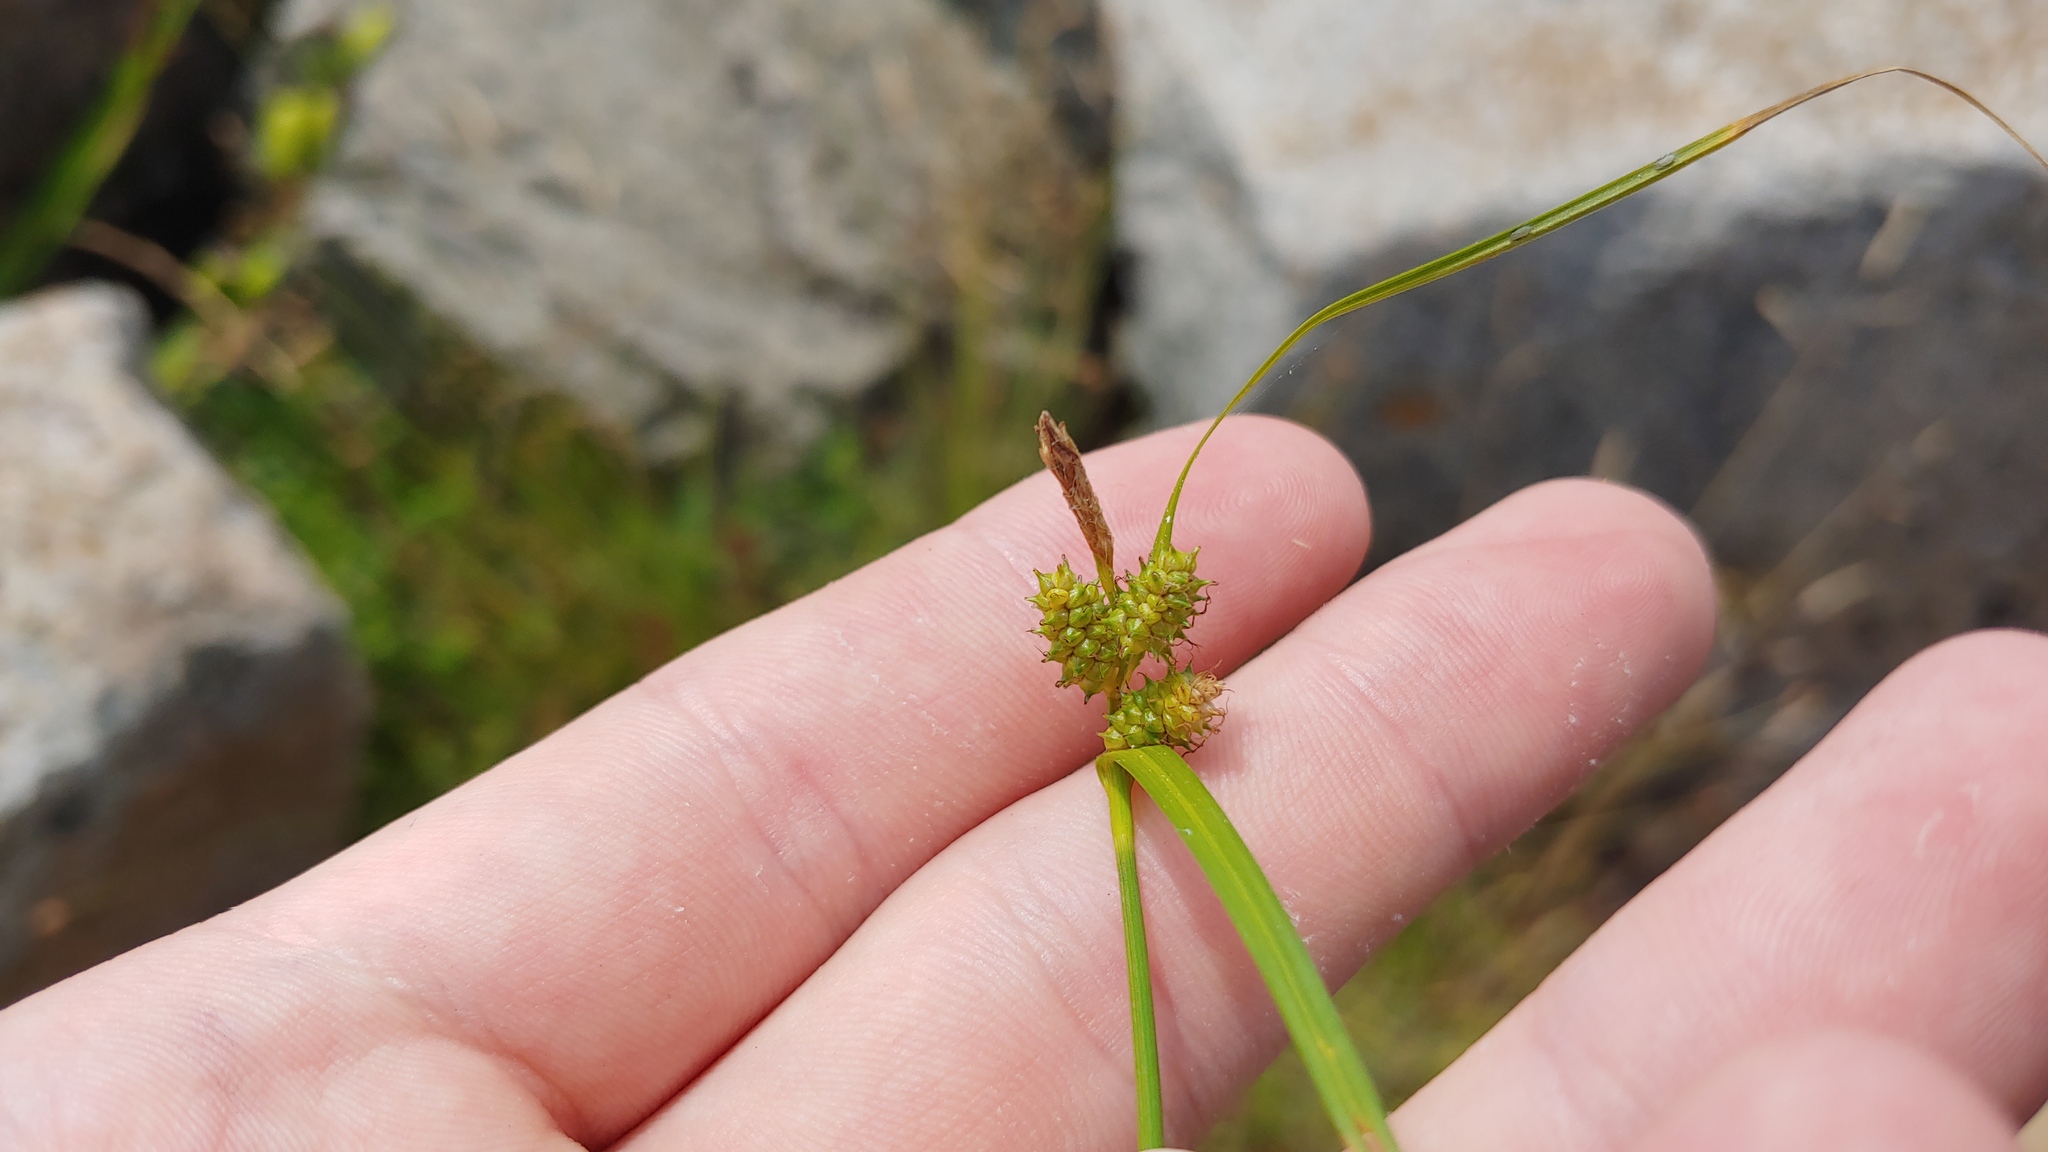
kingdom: Plantae
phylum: Tracheophyta
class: Liliopsida
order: Poales
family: Cyperaceae
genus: Carex
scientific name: Carex
